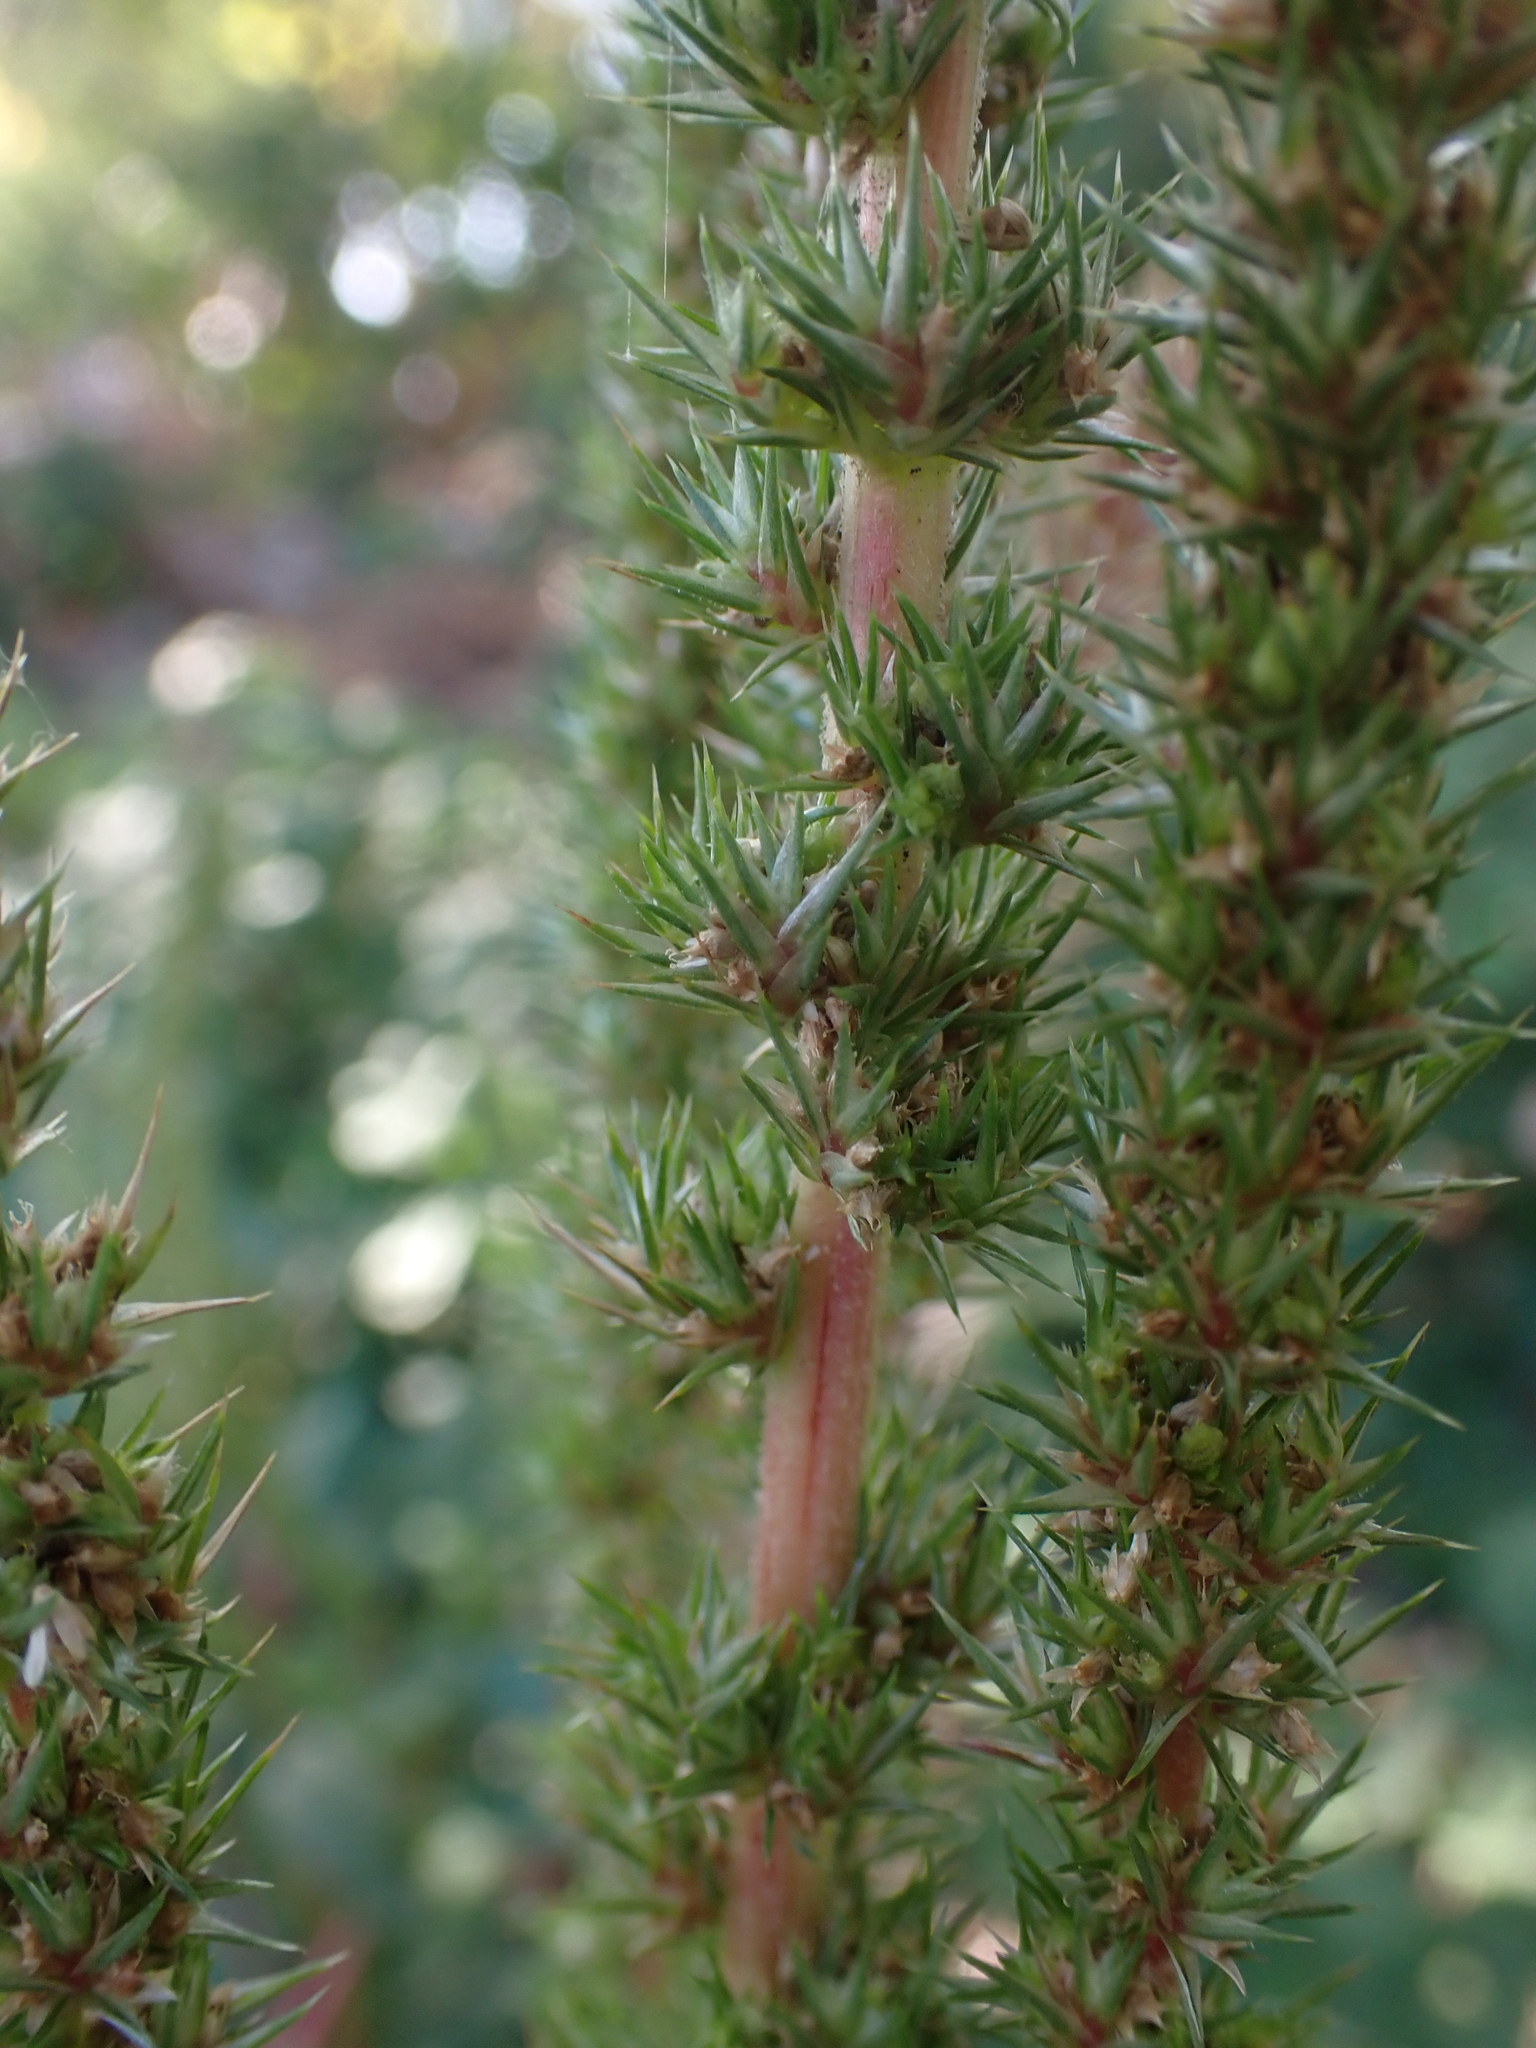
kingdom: Plantae
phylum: Tracheophyta
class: Magnoliopsida
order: Caryophyllales
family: Amaranthaceae
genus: Amaranthus
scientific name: Amaranthus powellii
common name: Powell's amaranth
